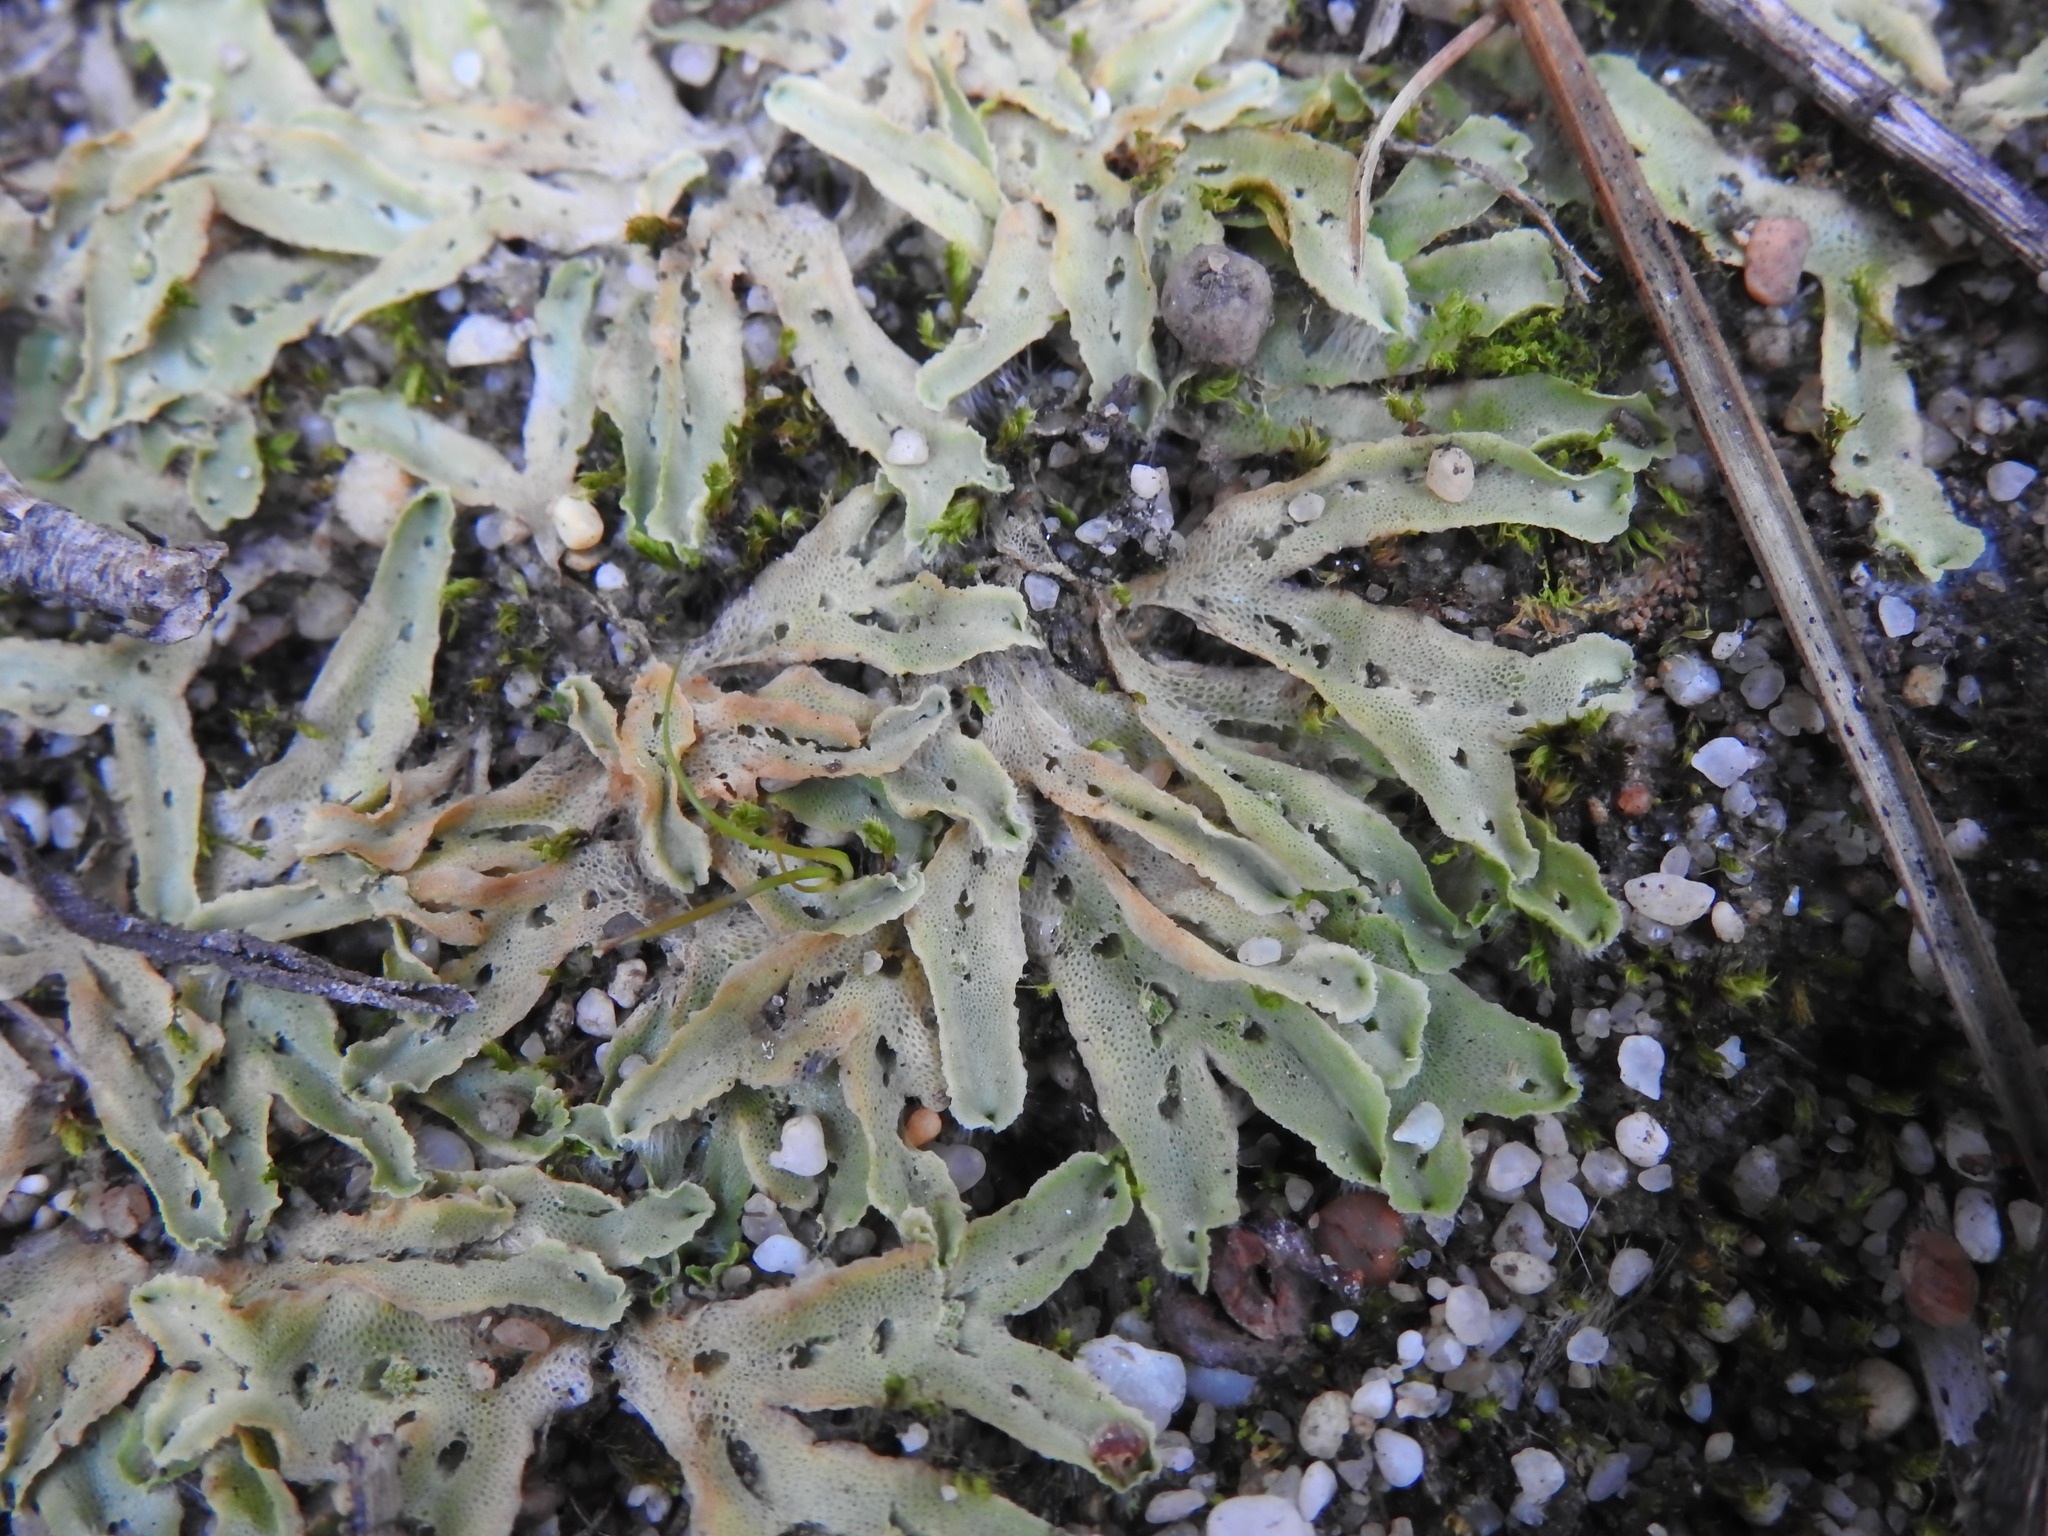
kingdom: Plantae
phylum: Marchantiophyta
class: Marchantiopsida
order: Marchantiales
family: Corsiniaceae
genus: Corsinia
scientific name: Corsinia coriandrina
